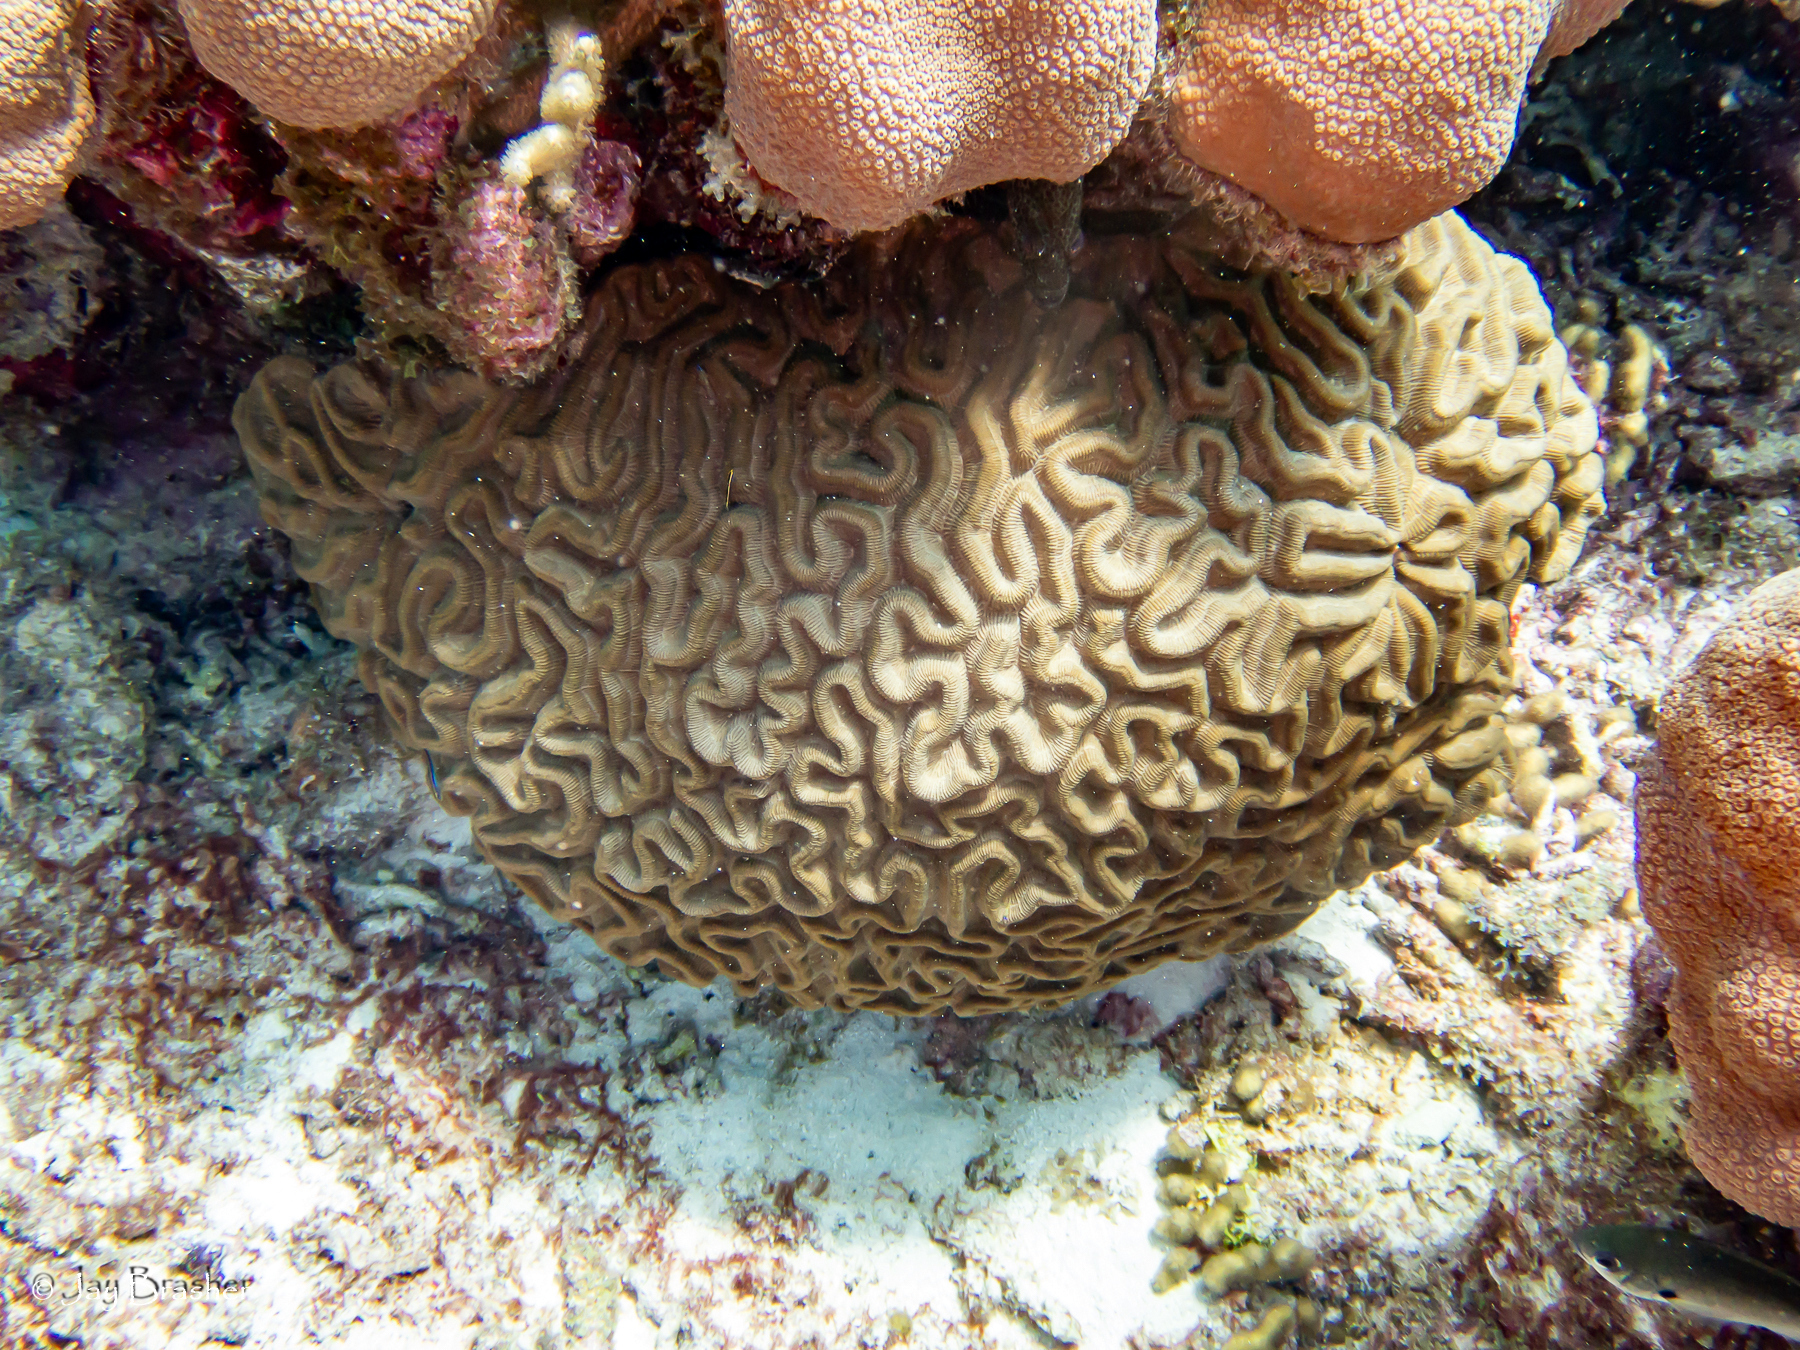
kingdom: Animalia
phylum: Cnidaria
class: Anthozoa
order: Scleractinia
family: Faviidae
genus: Colpophyllia
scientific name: Colpophyllia natans
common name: Boulder brain coral
